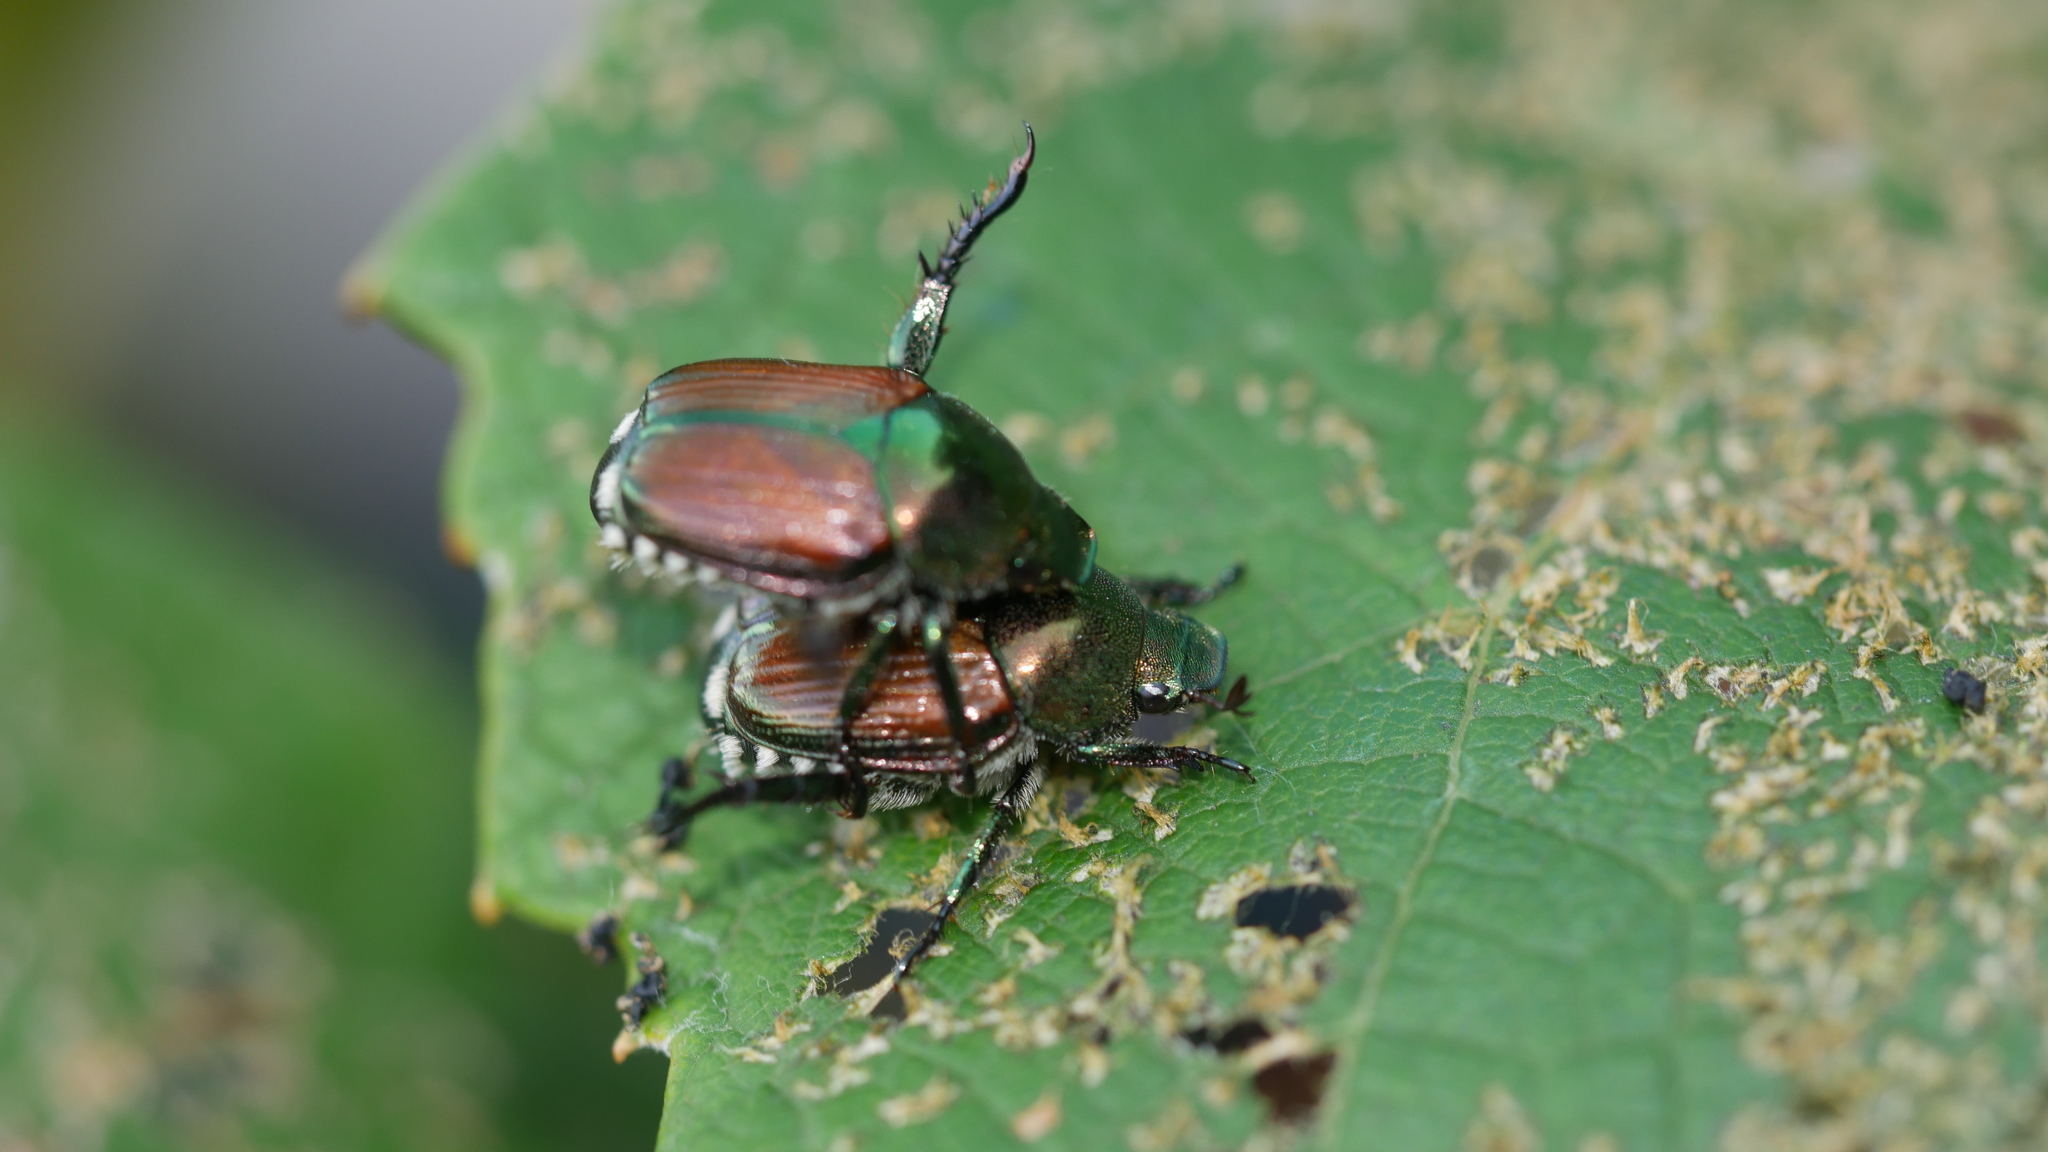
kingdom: Animalia
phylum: Arthropoda
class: Insecta
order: Coleoptera
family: Scarabaeidae
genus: Popillia
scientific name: Popillia japonica
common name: Japanese beetle
